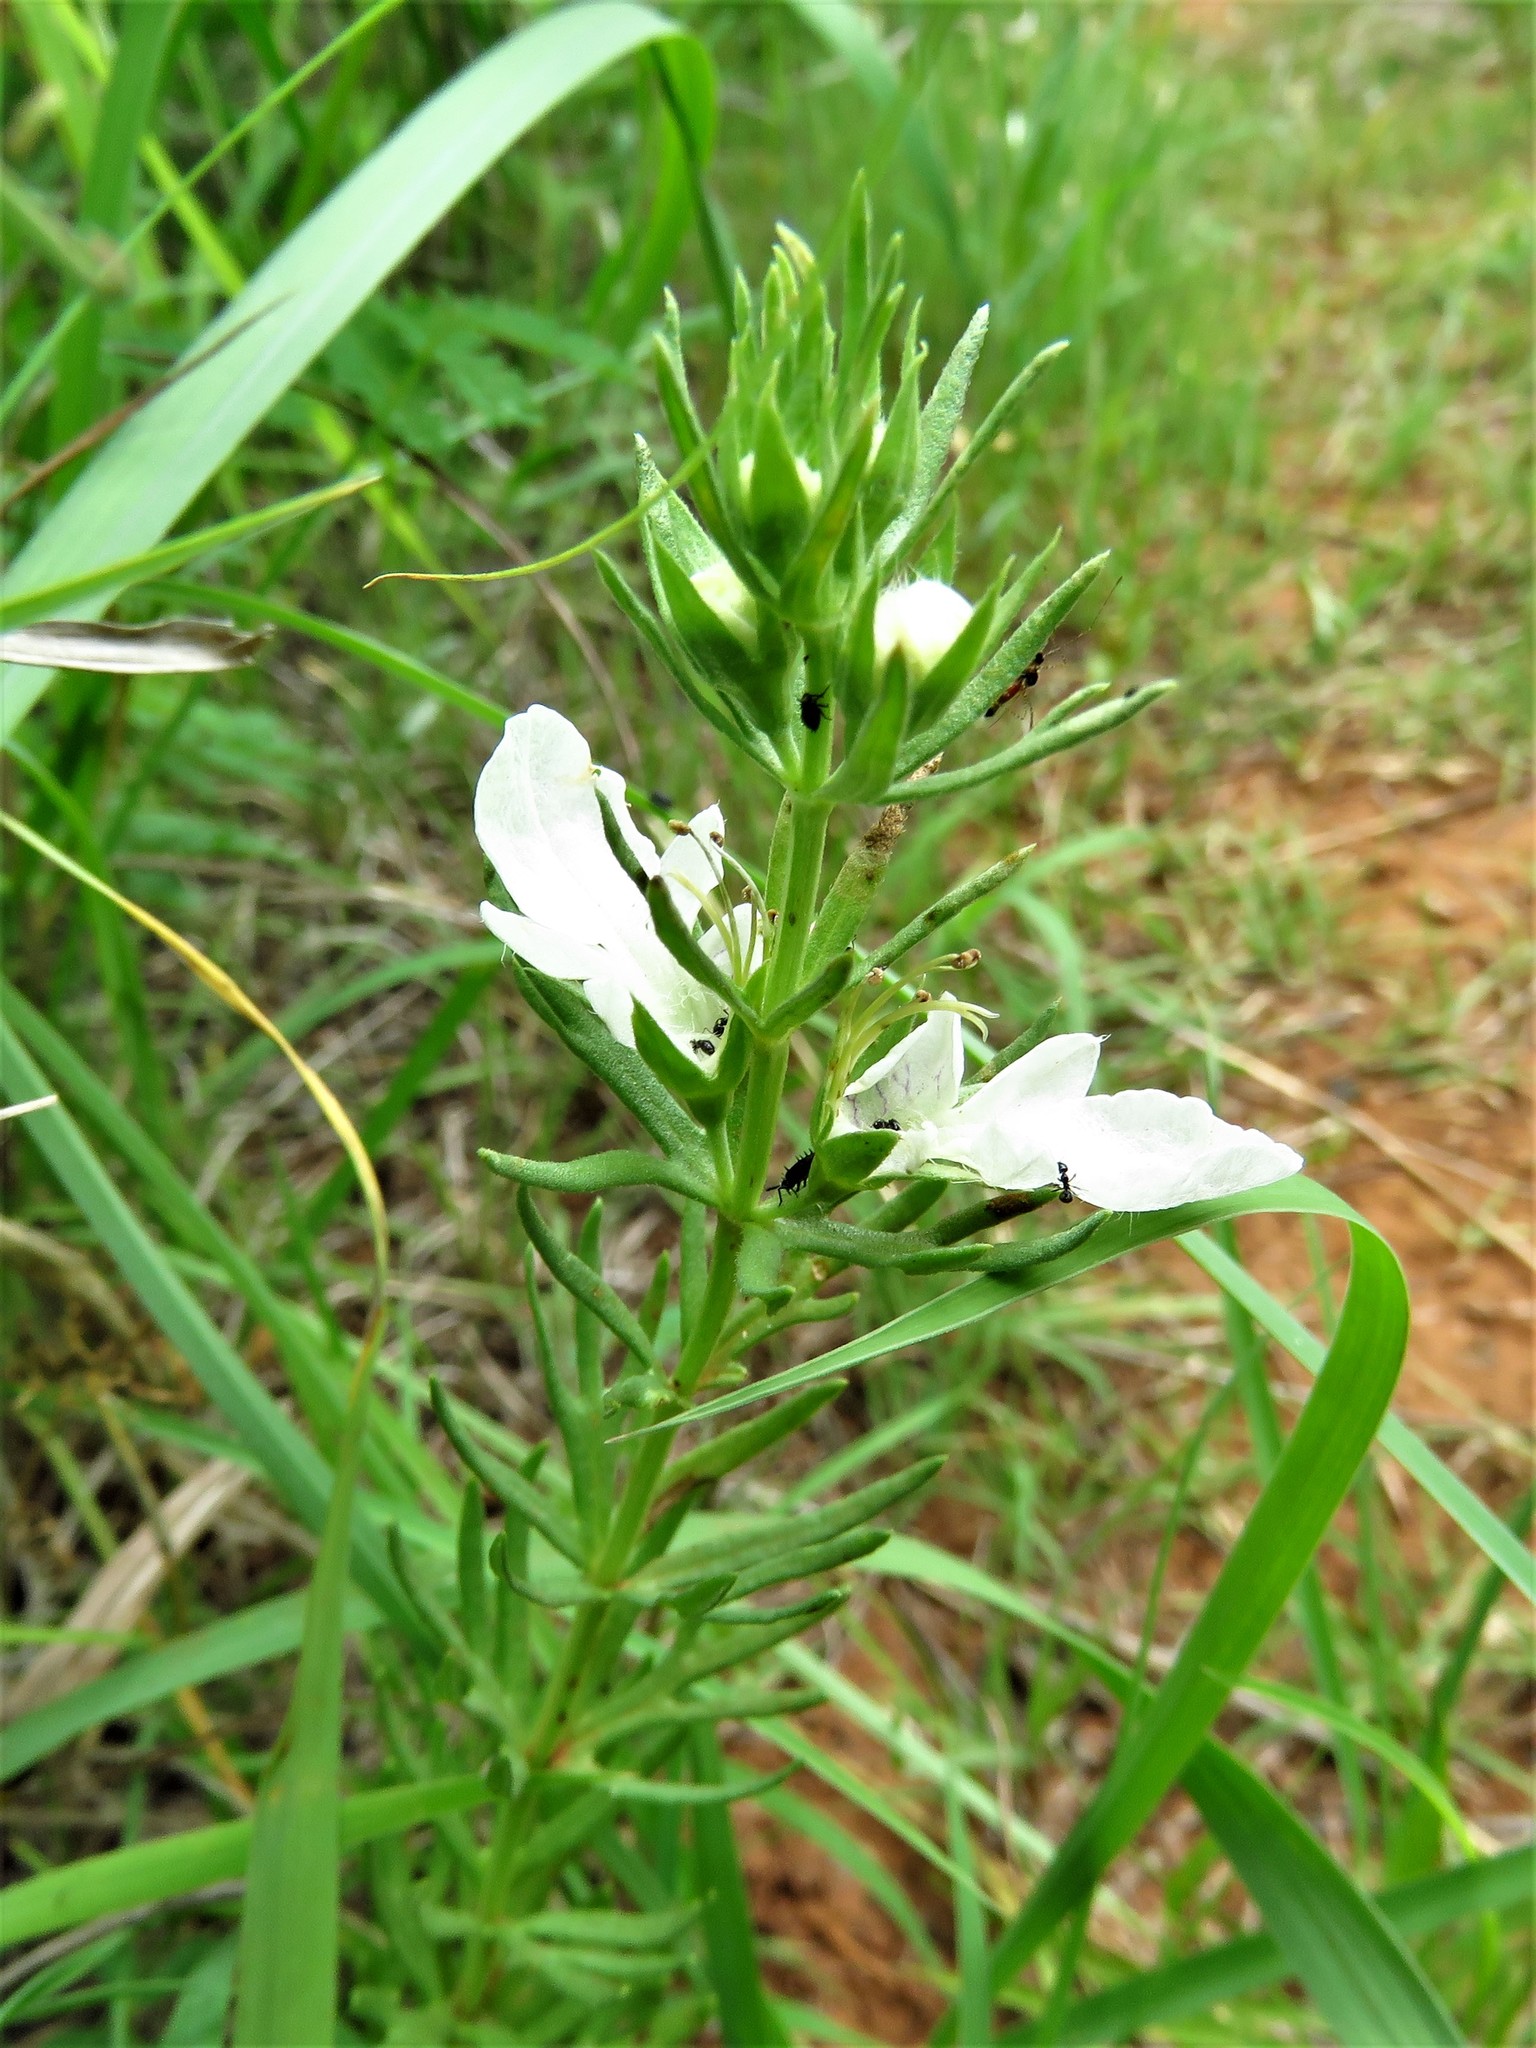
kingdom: Plantae
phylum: Tracheophyta
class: Magnoliopsida
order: Lamiales
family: Lamiaceae
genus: Teucrium
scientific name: Teucrium laciniatum
